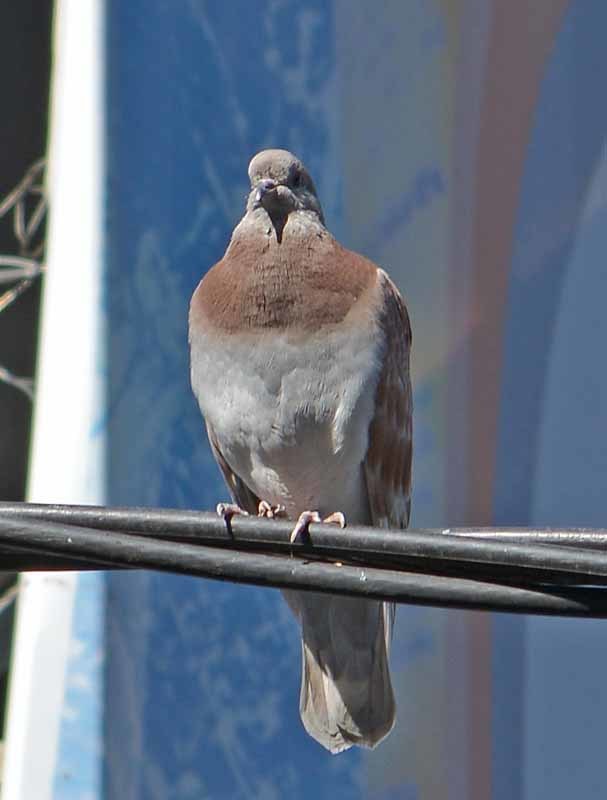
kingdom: Animalia
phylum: Chordata
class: Aves
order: Columbiformes
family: Columbidae
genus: Columba
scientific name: Columba livia
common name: Rock pigeon
